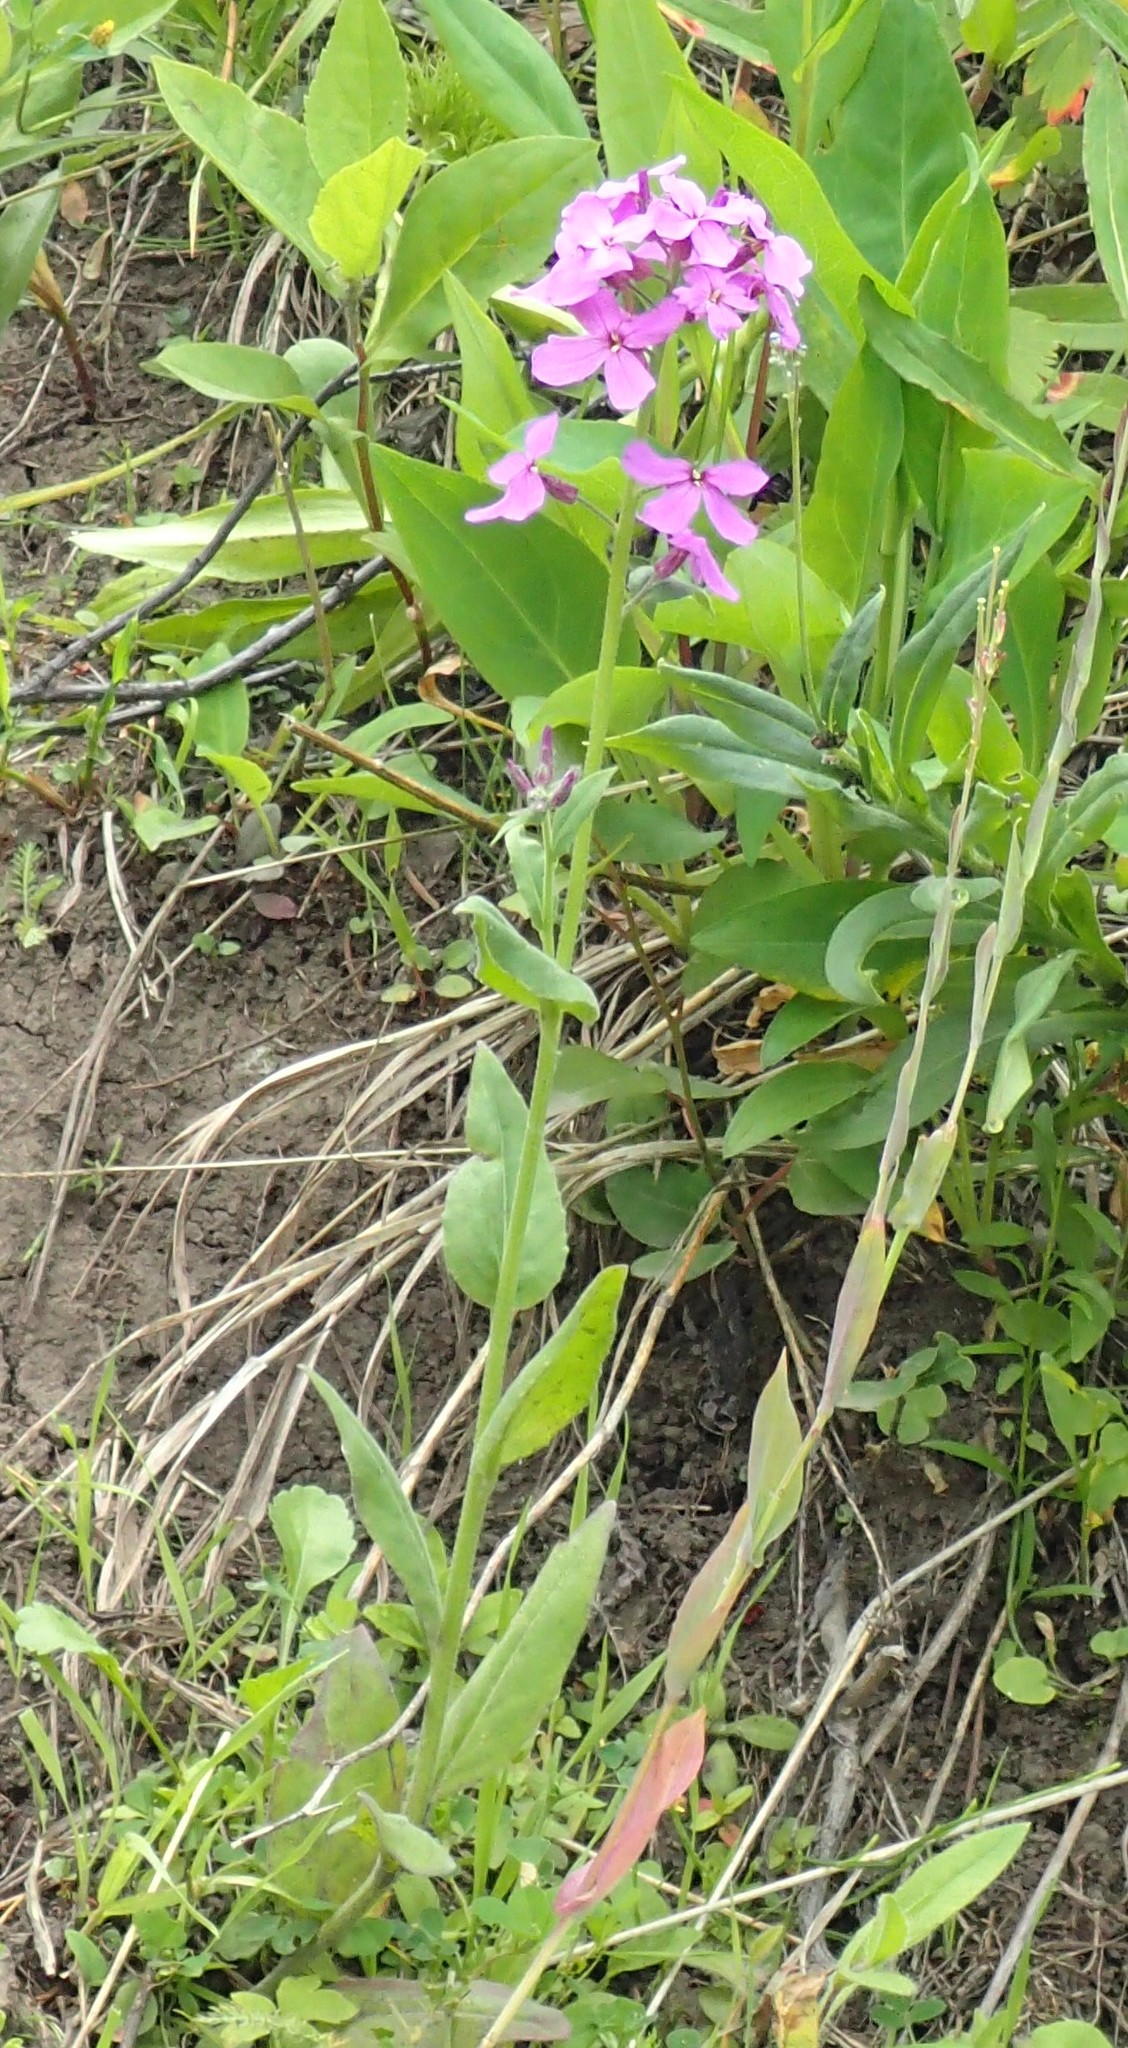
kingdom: Plantae
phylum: Tracheophyta
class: Magnoliopsida
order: Brassicales
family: Brassicaceae
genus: Hesperis
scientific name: Hesperis matronalis
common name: Dame's-violet
